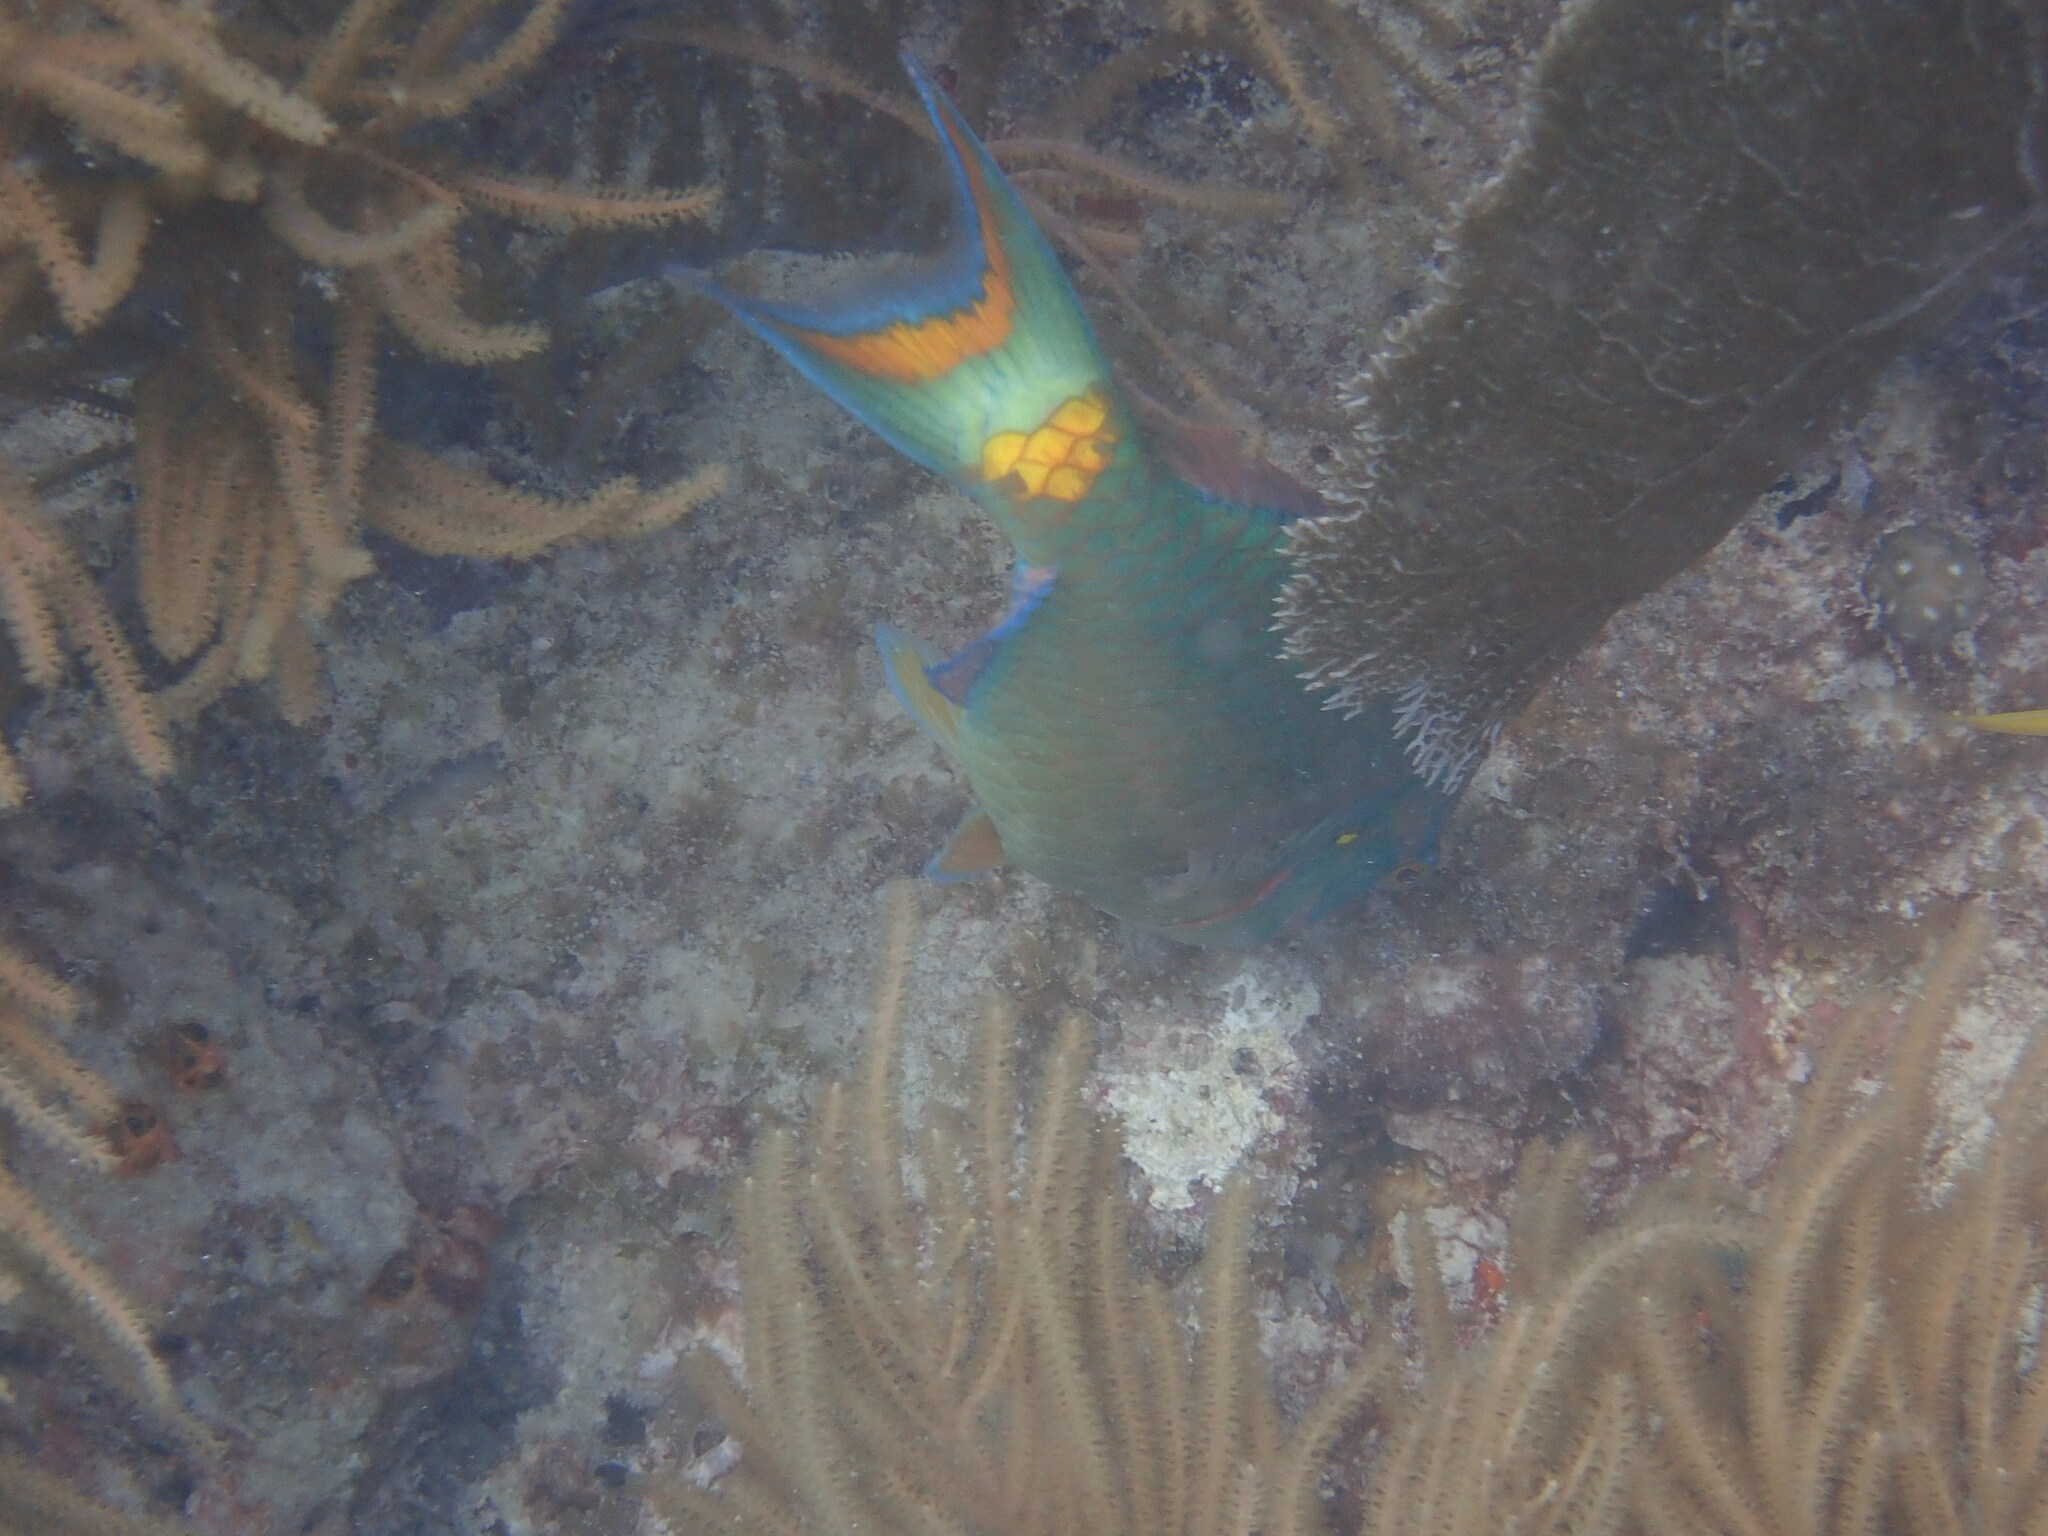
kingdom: Animalia
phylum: Chordata
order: Perciformes
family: Scaridae
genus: Sparisoma
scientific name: Sparisoma viride
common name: Stoplight parrotfish
